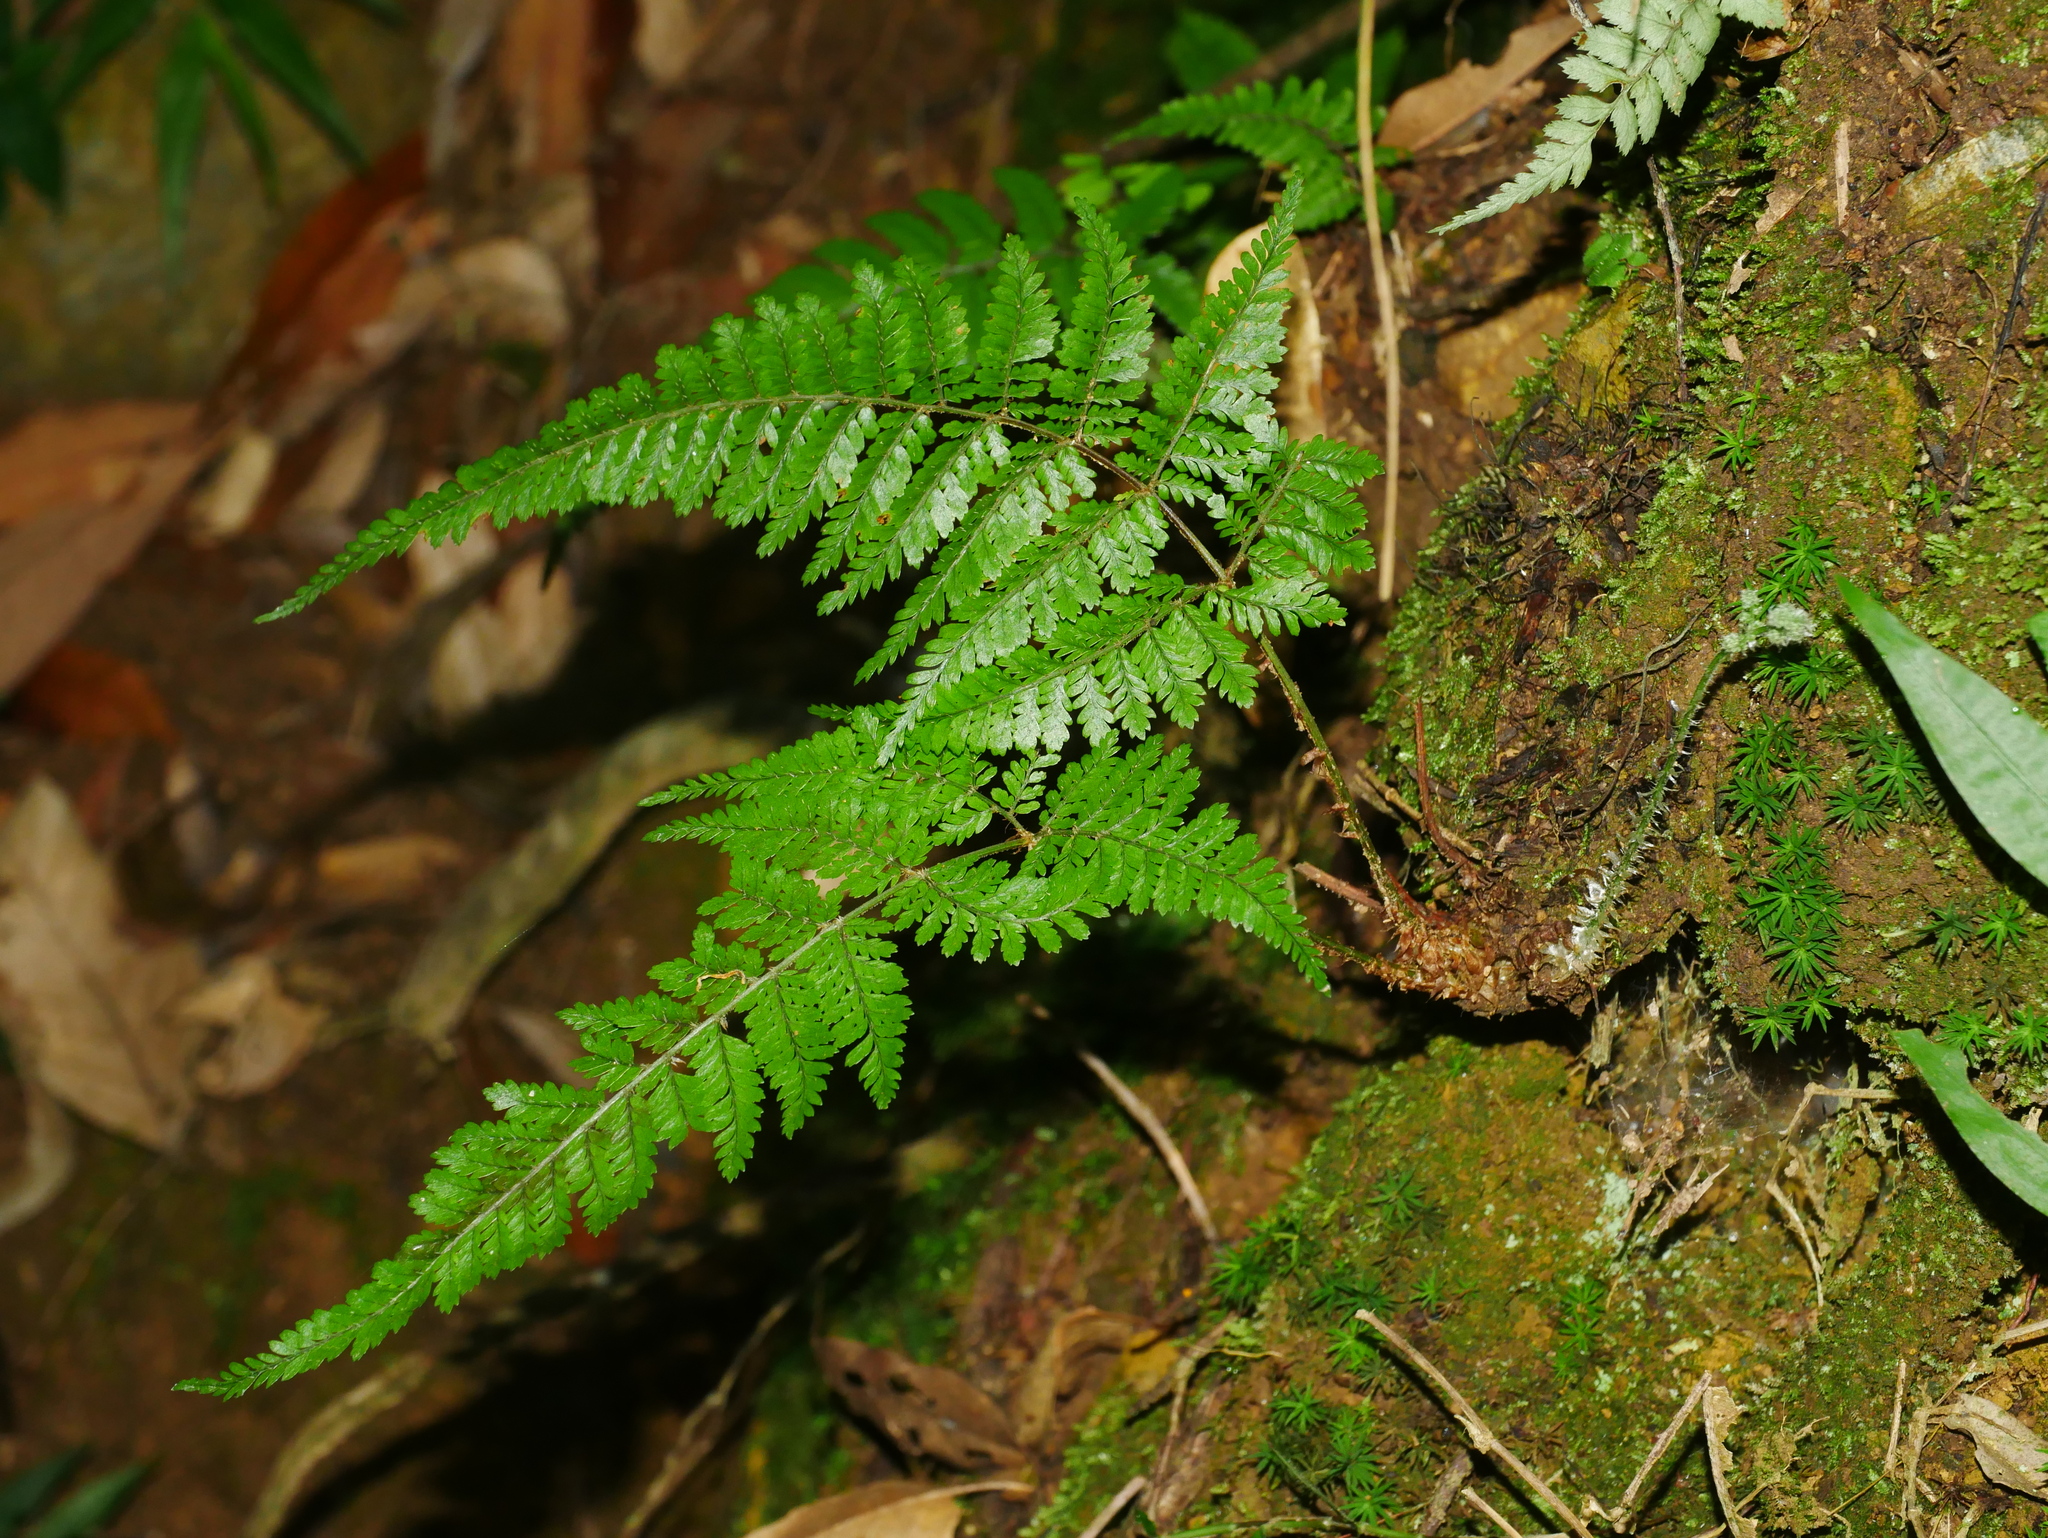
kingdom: Plantae
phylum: Tracheophyta
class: Polypodiopsida
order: Polypodiales
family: Dryopteridaceae
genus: Dryopteris
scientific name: Dryopteris pseudocaenopteris
